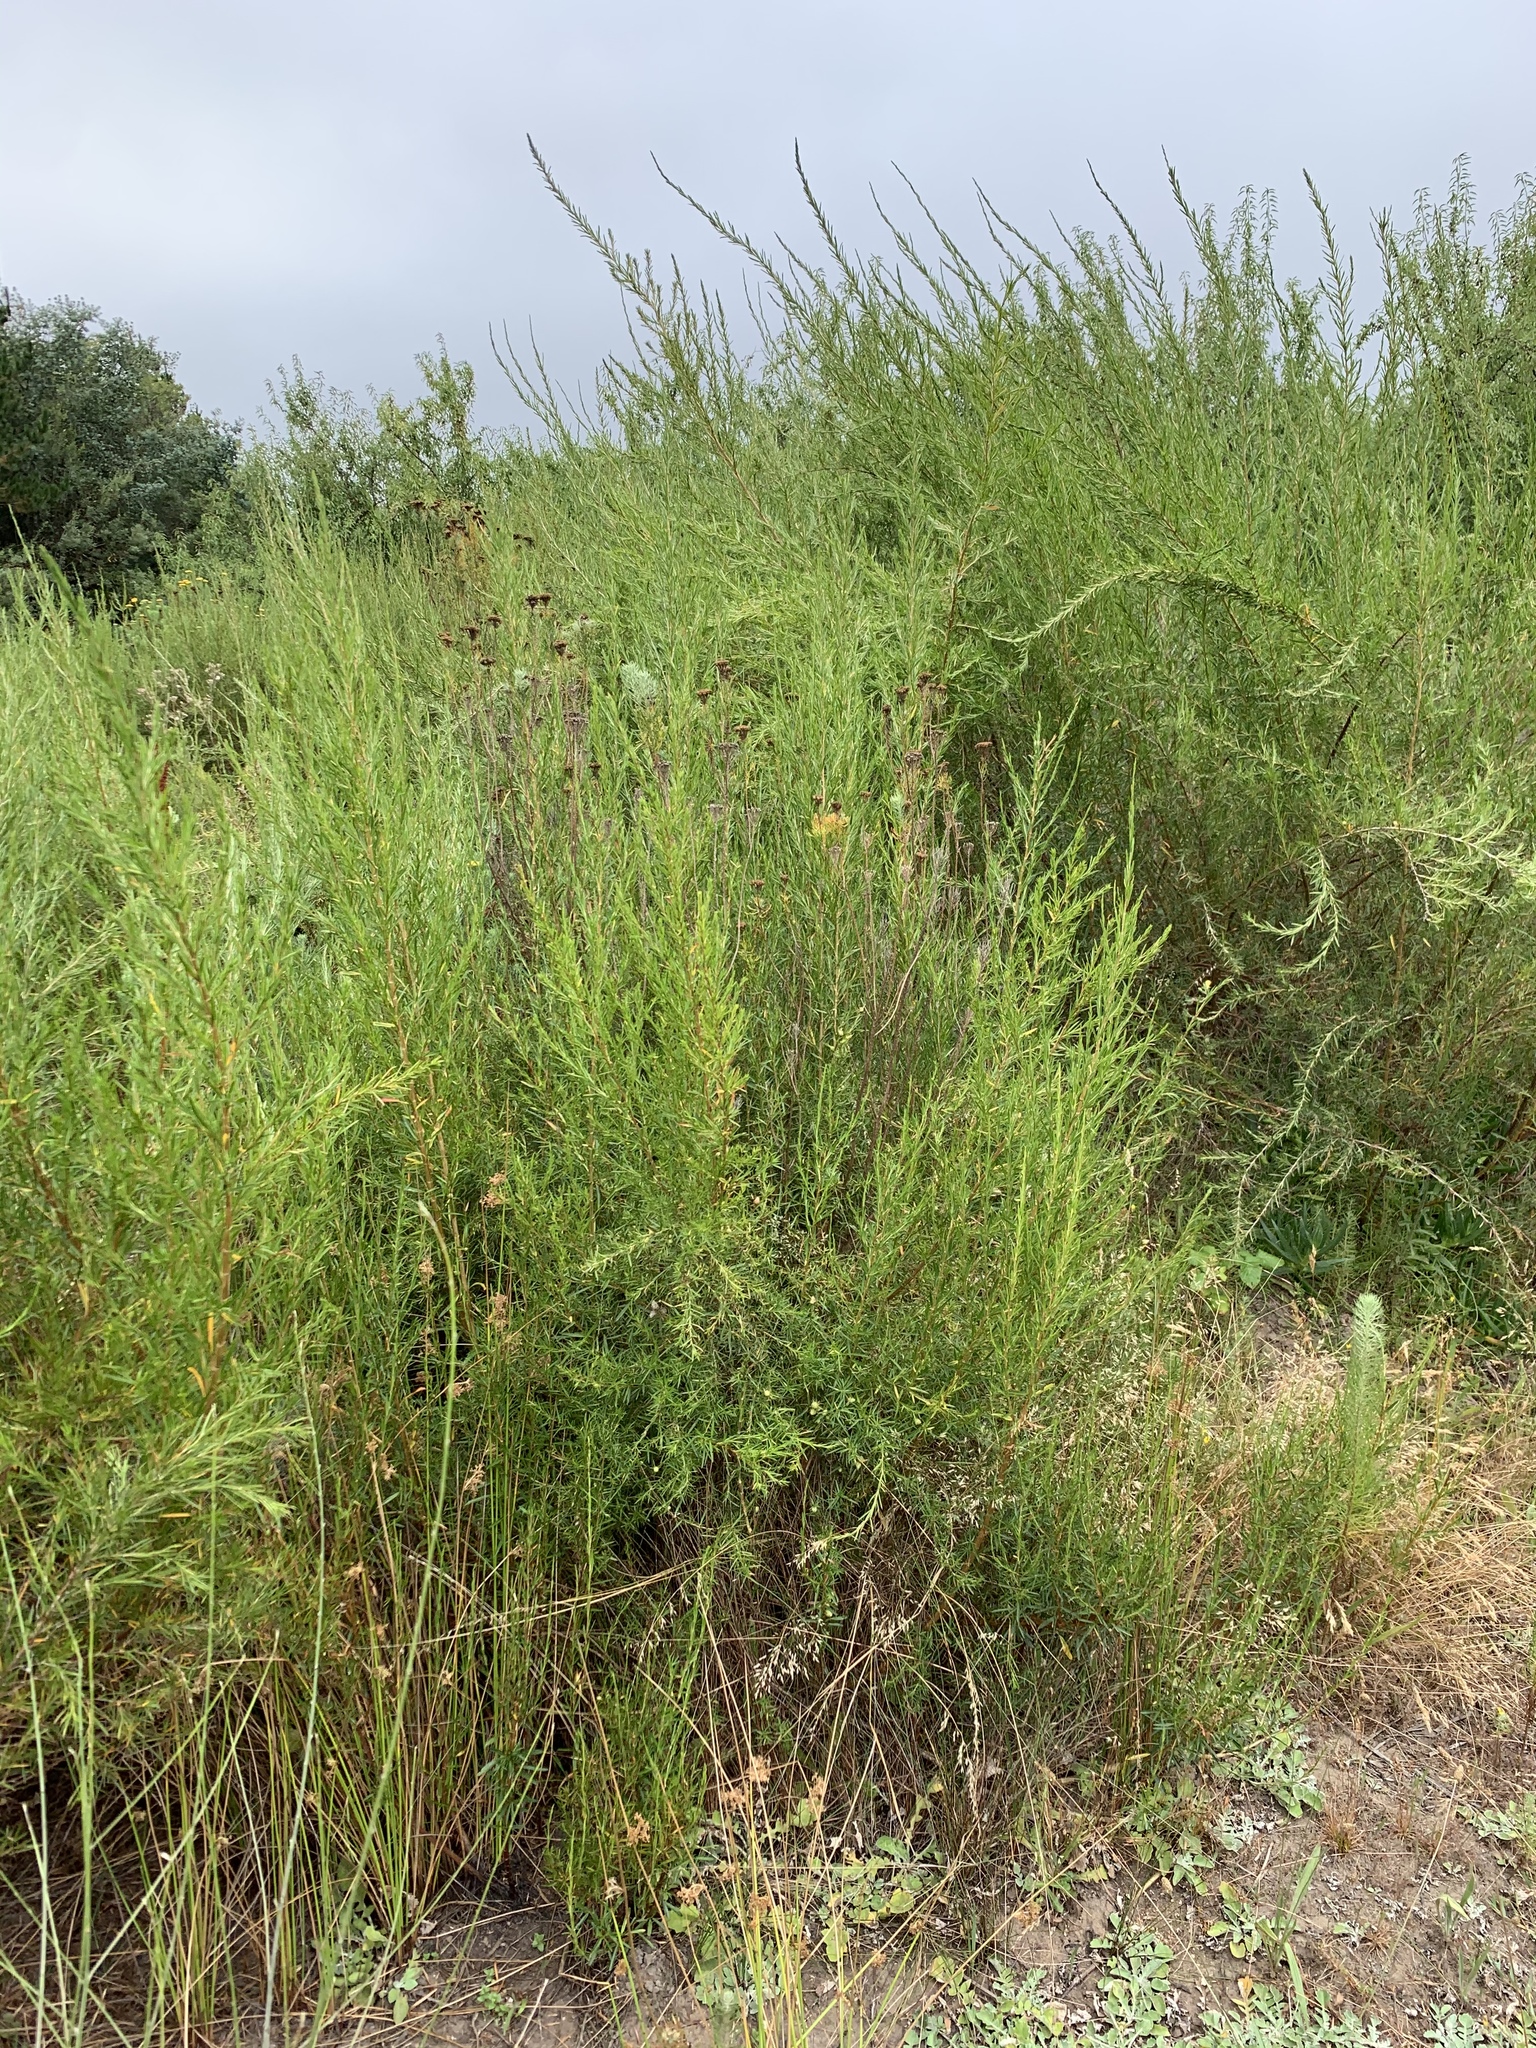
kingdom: Plantae
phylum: Tracheophyta
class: Magnoliopsida
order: Rosales
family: Rosaceae
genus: Cliffortia
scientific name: Cliffortia strobilifera
